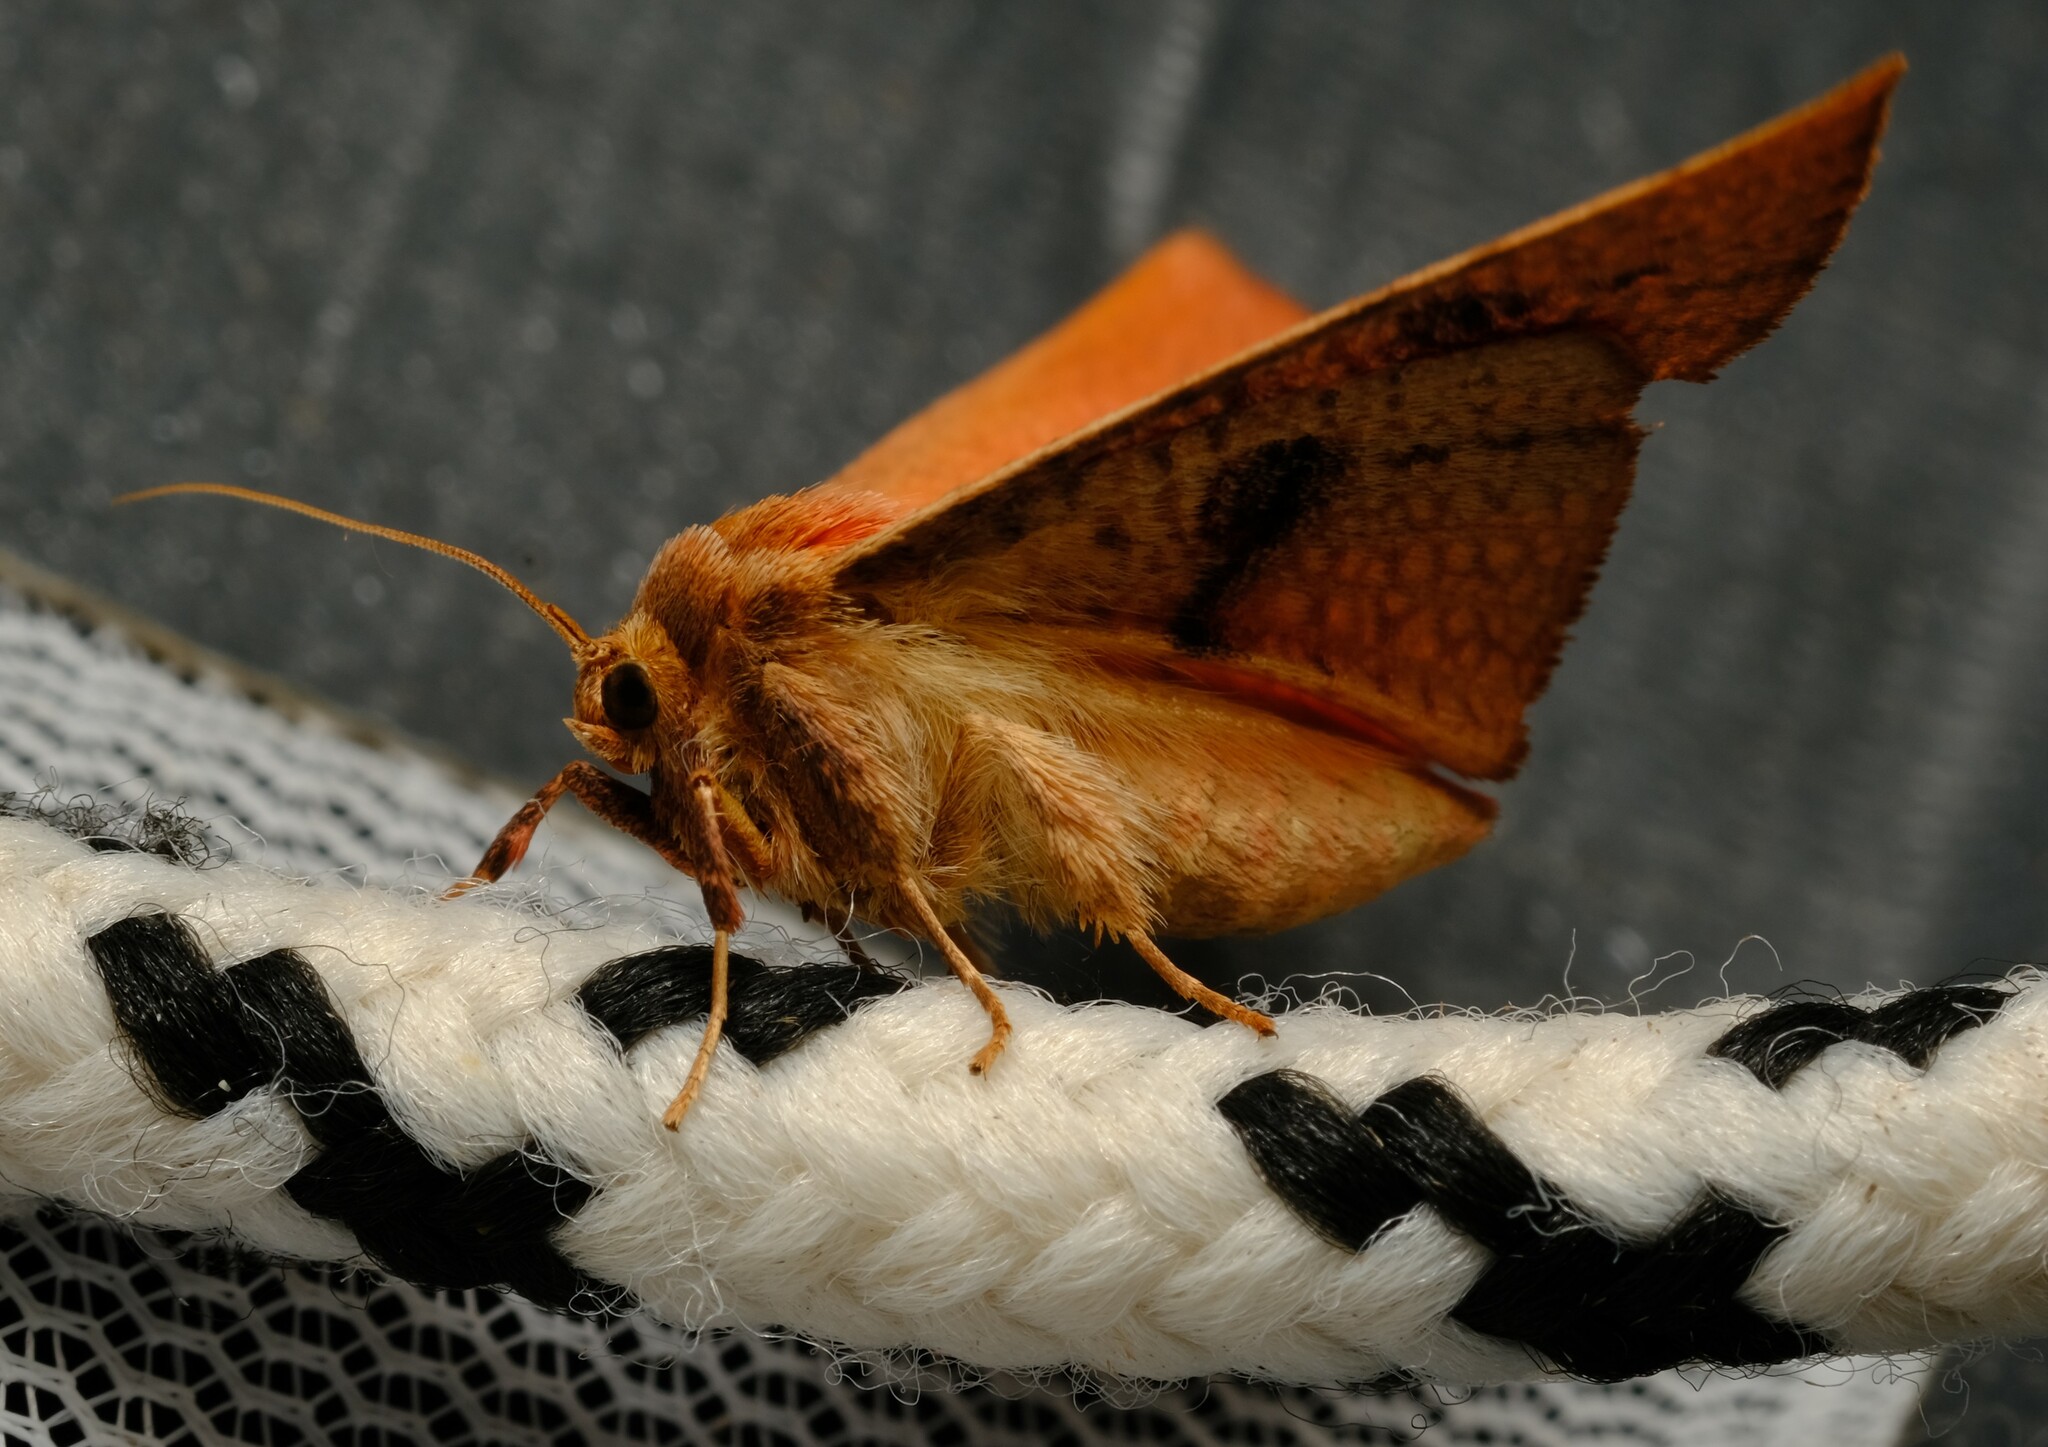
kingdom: Animalia
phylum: Arthropoda
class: Insecta
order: Lepidoptera
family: Thyrididae
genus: Aglaopus
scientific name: Aglaopus pyrrhata
